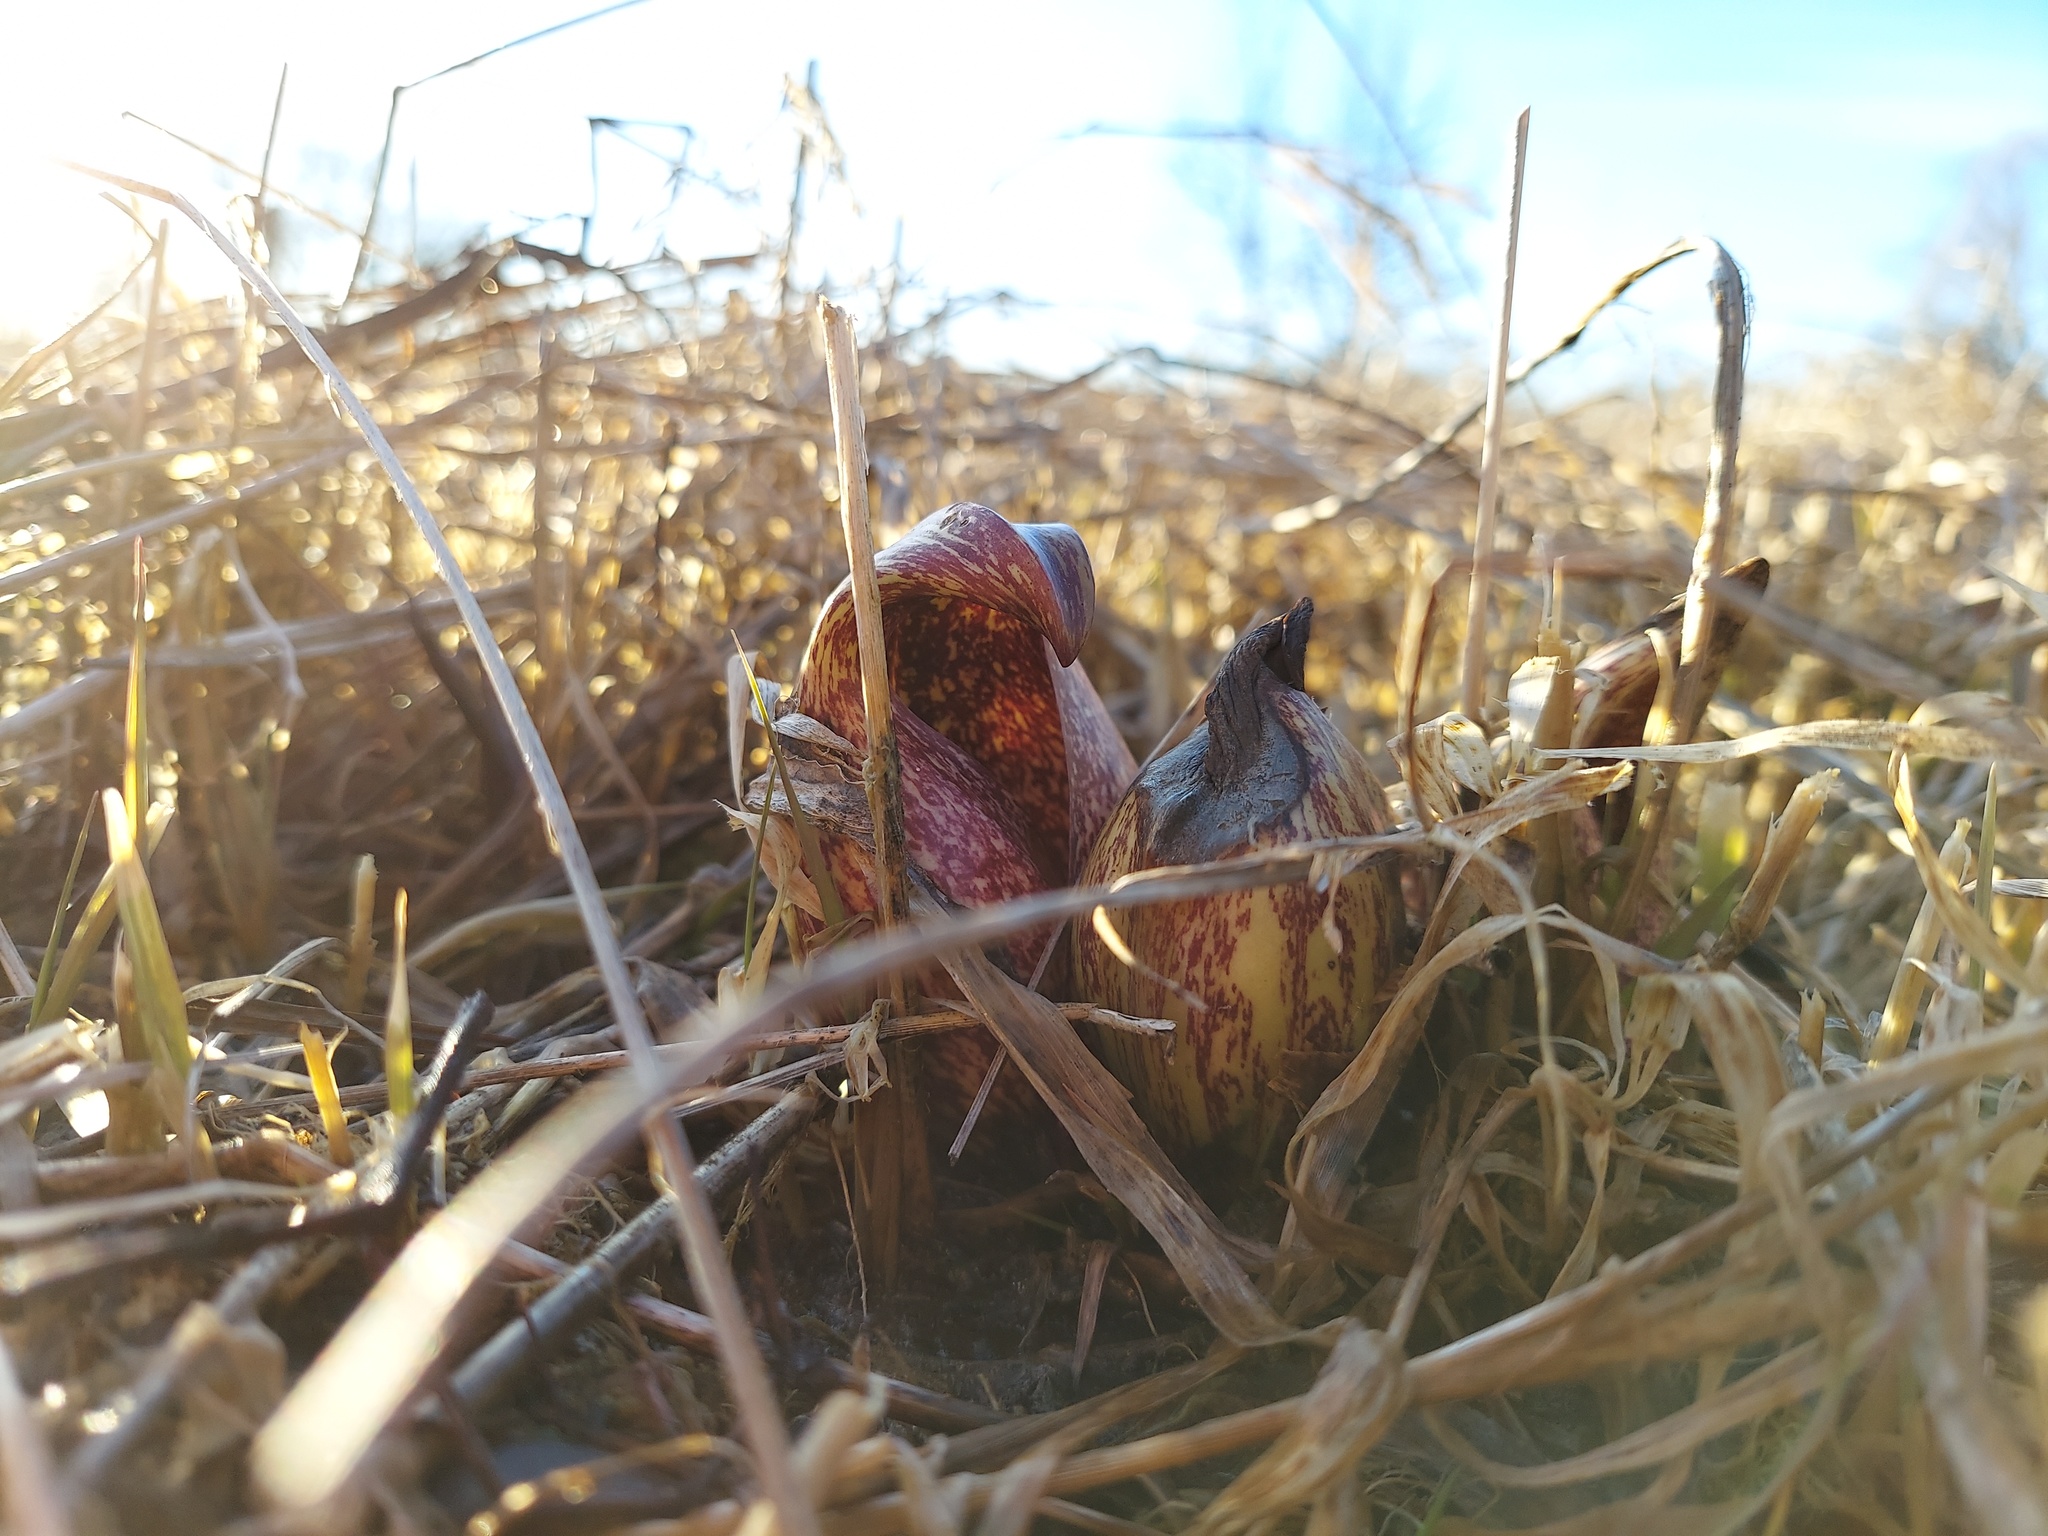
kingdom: Plantae
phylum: Tracheophyta
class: Liliopsida
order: Alismatales
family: Araceae
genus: Symplocarpus
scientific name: Symplocarpus foetidus
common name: Eastern skunk cabbage
